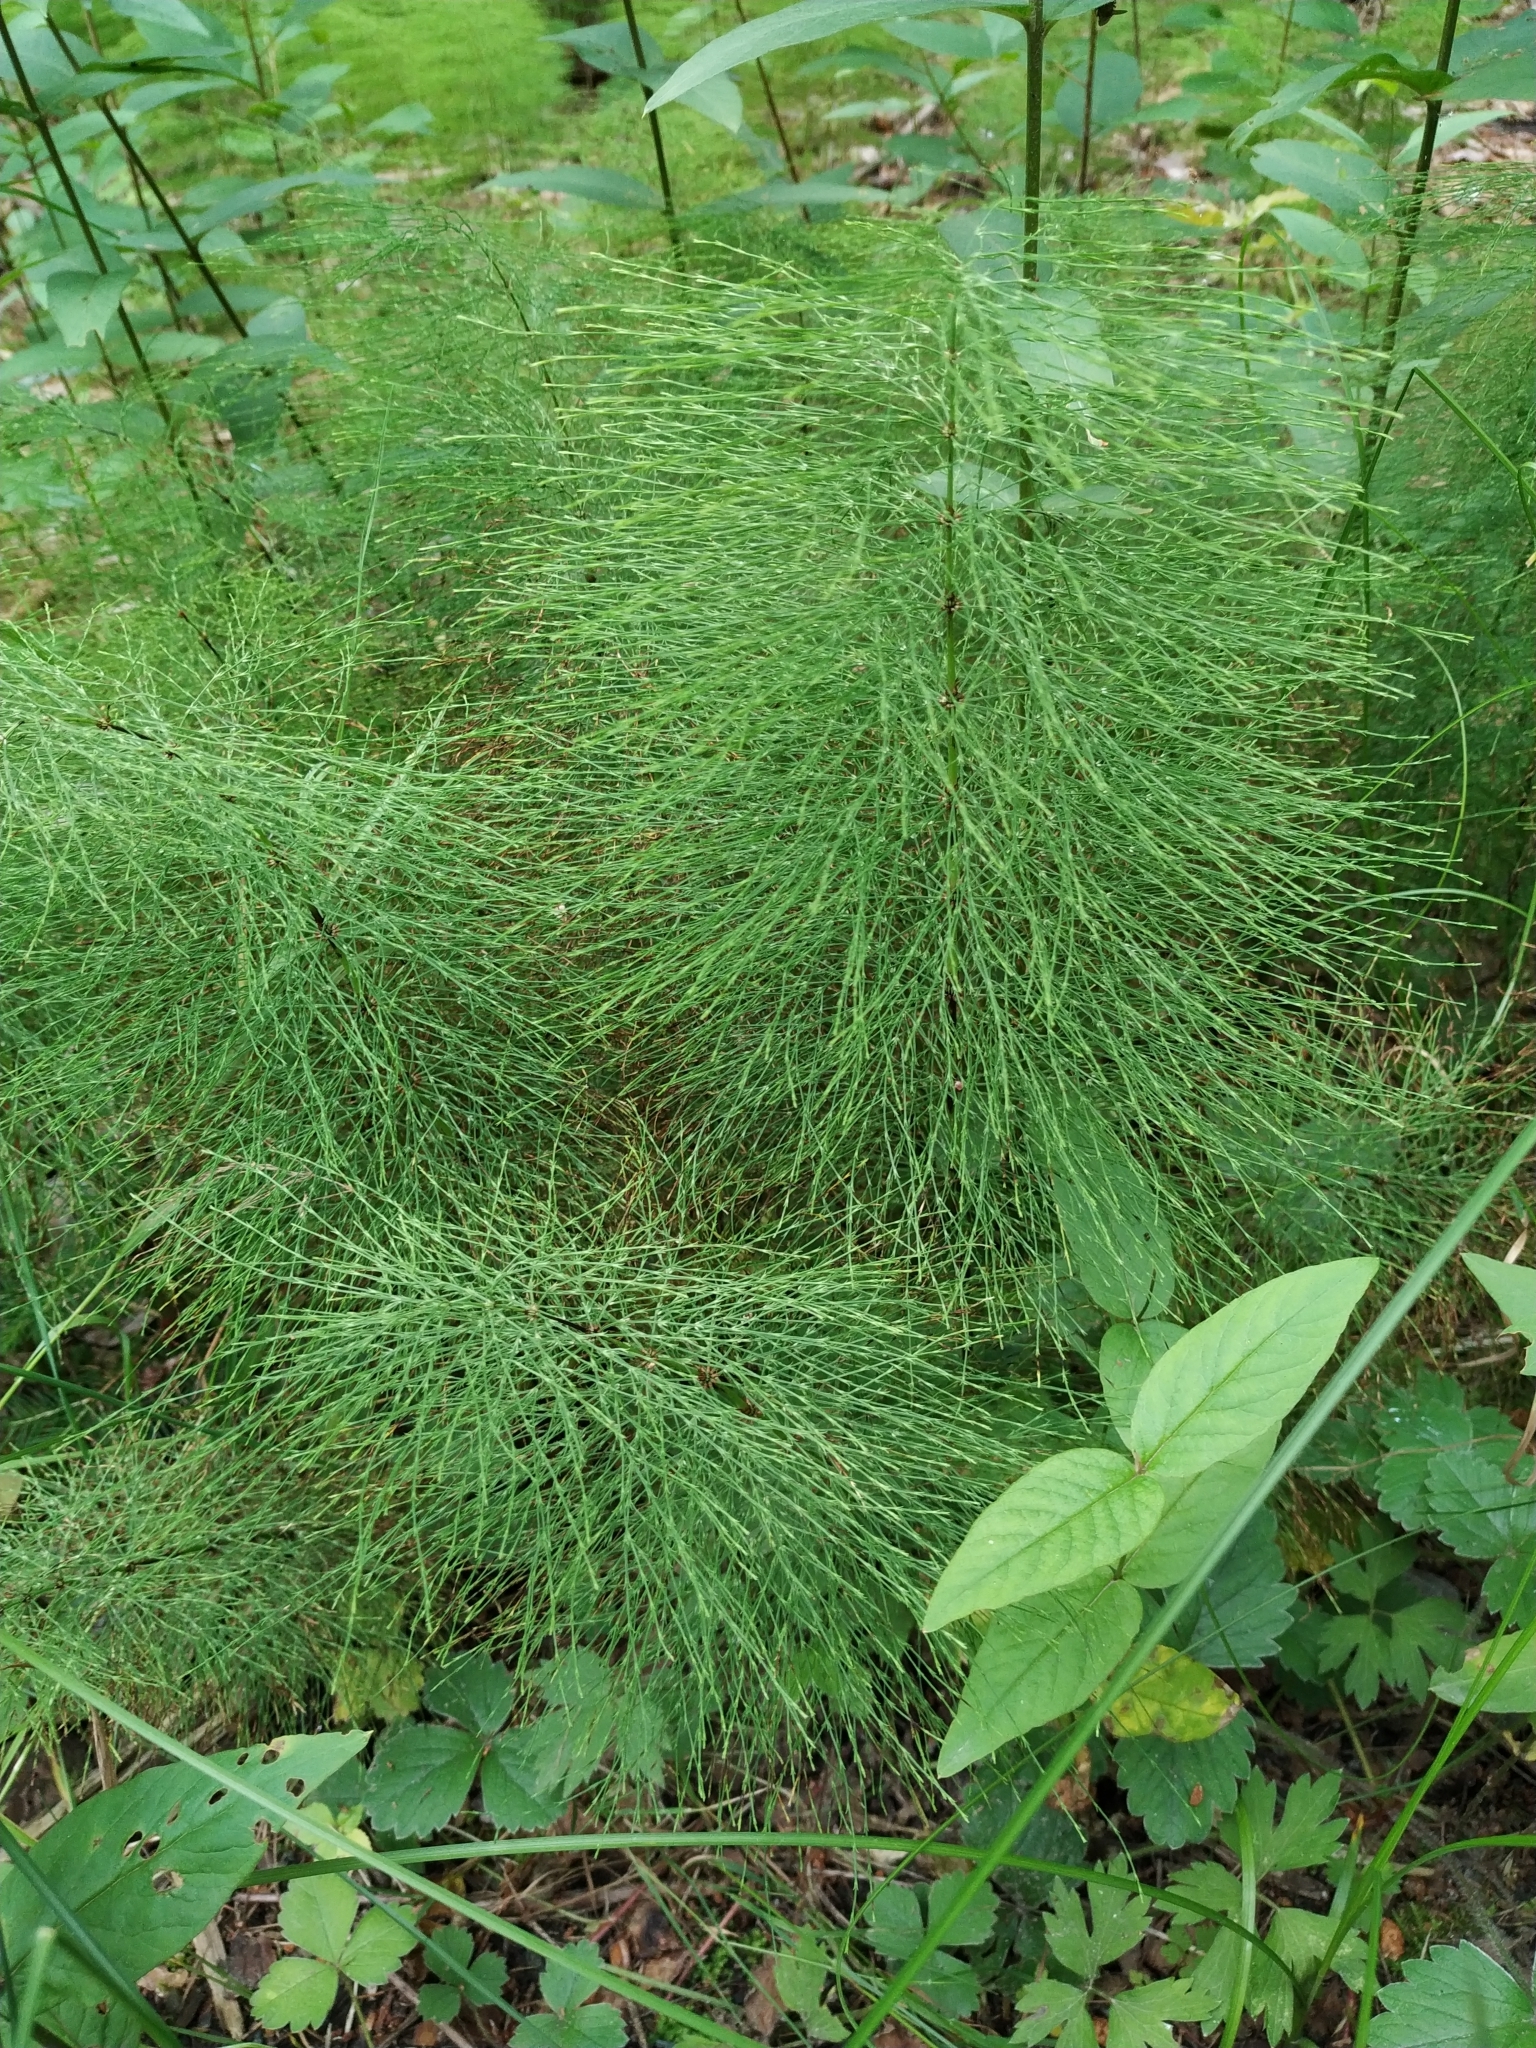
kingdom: Plantae
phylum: Tracheophyta
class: Polypodiopsida
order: Equisetales
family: Equisetaceae
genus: Equisetum
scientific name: Equisetum sylvaticum
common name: Wood horsetail
